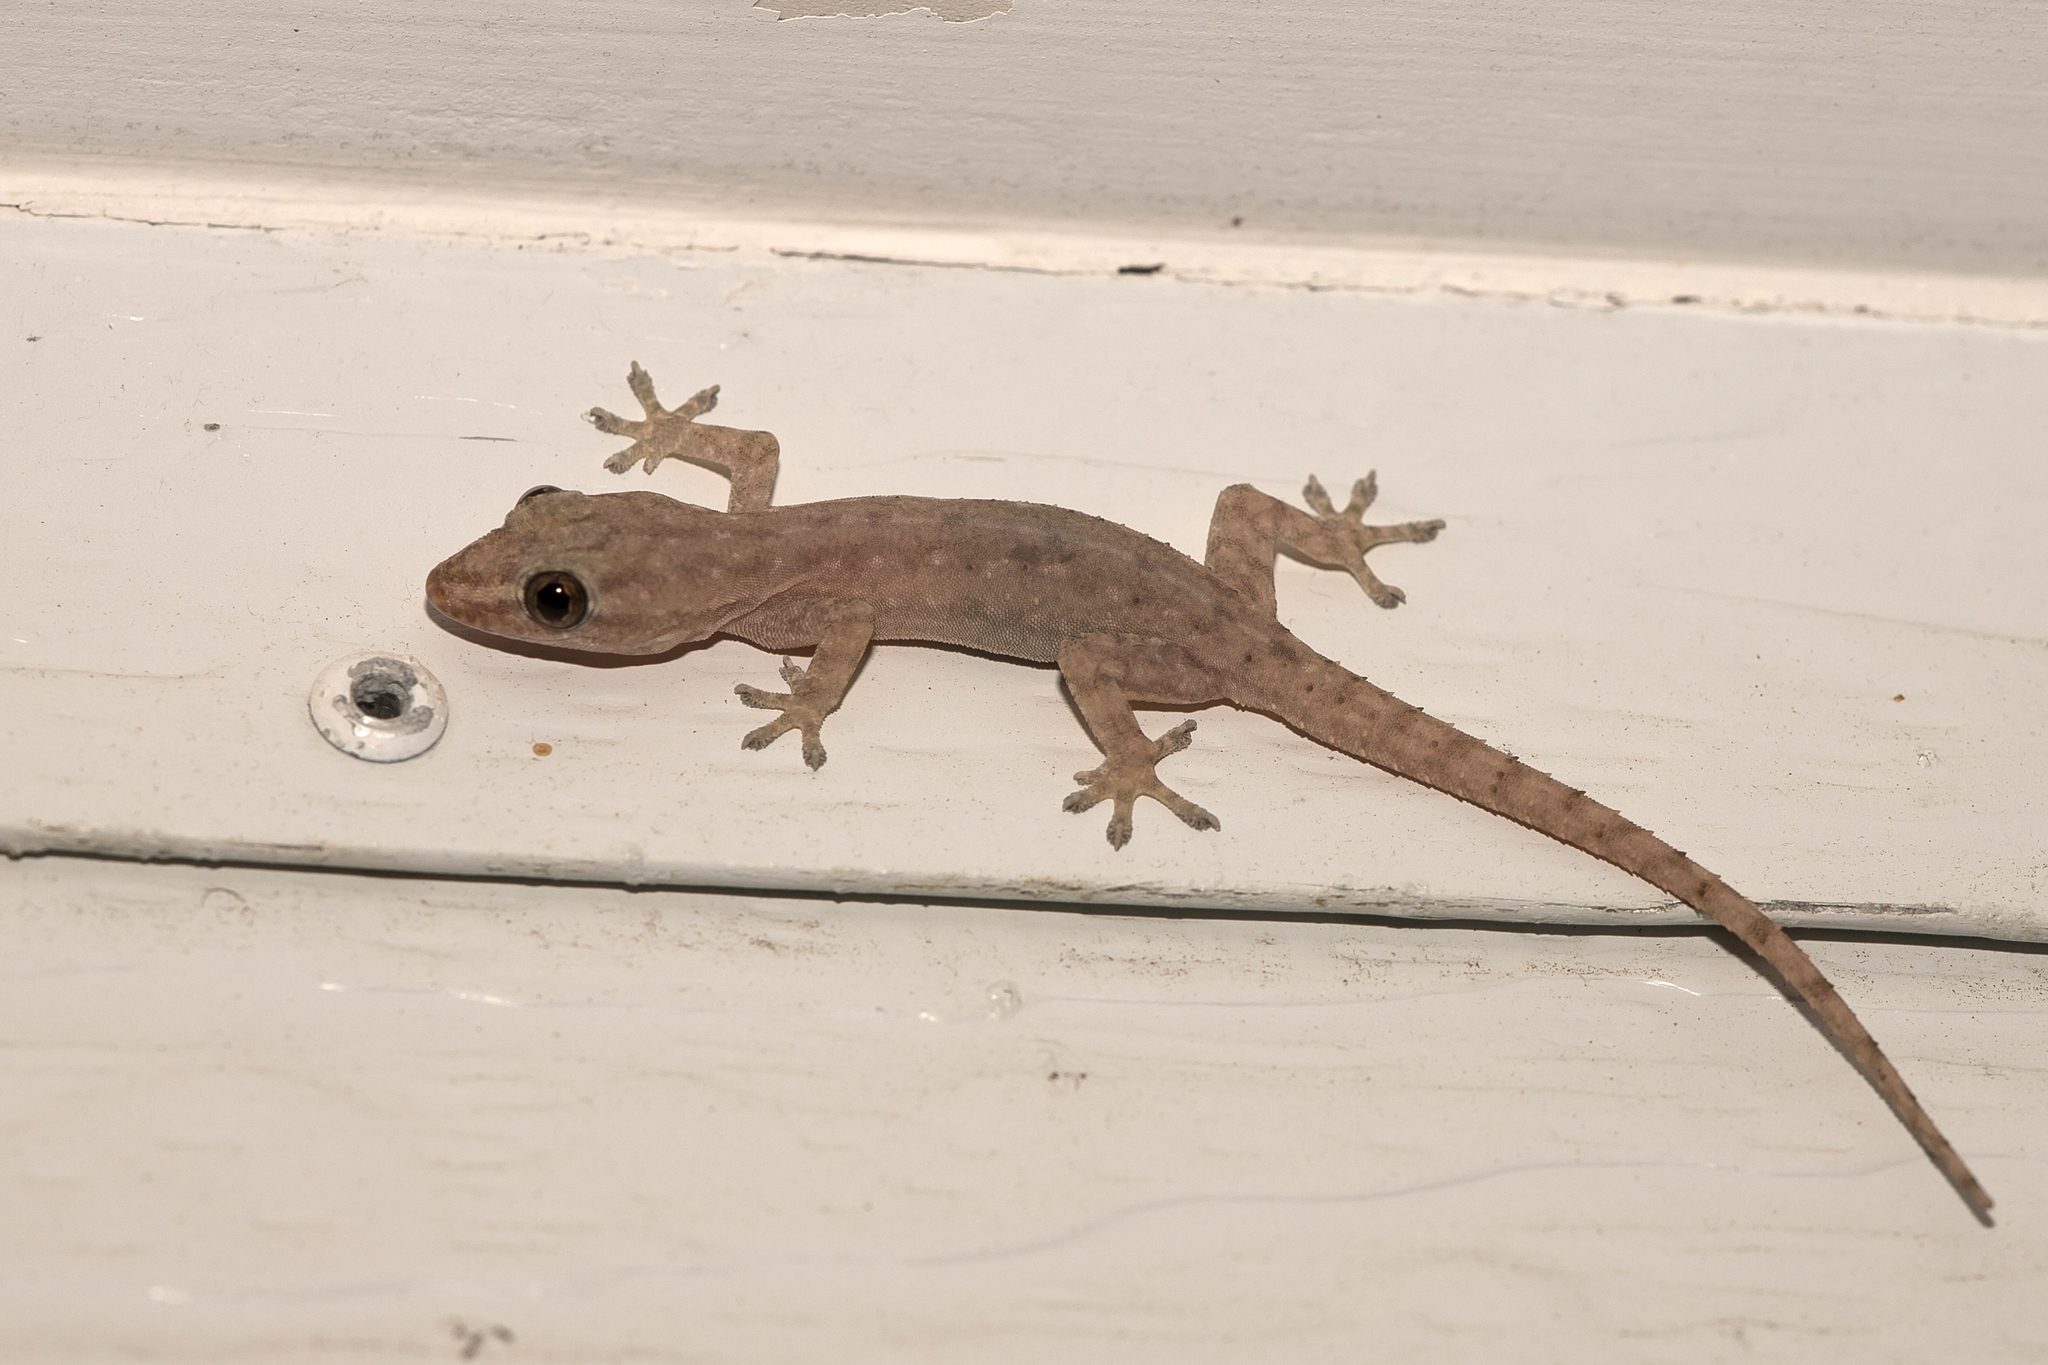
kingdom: Animalia
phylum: Chordata
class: Squamata
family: Gekkonidae
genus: Hemidactylus
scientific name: Hemidactylus frenatus
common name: Common house gecko
